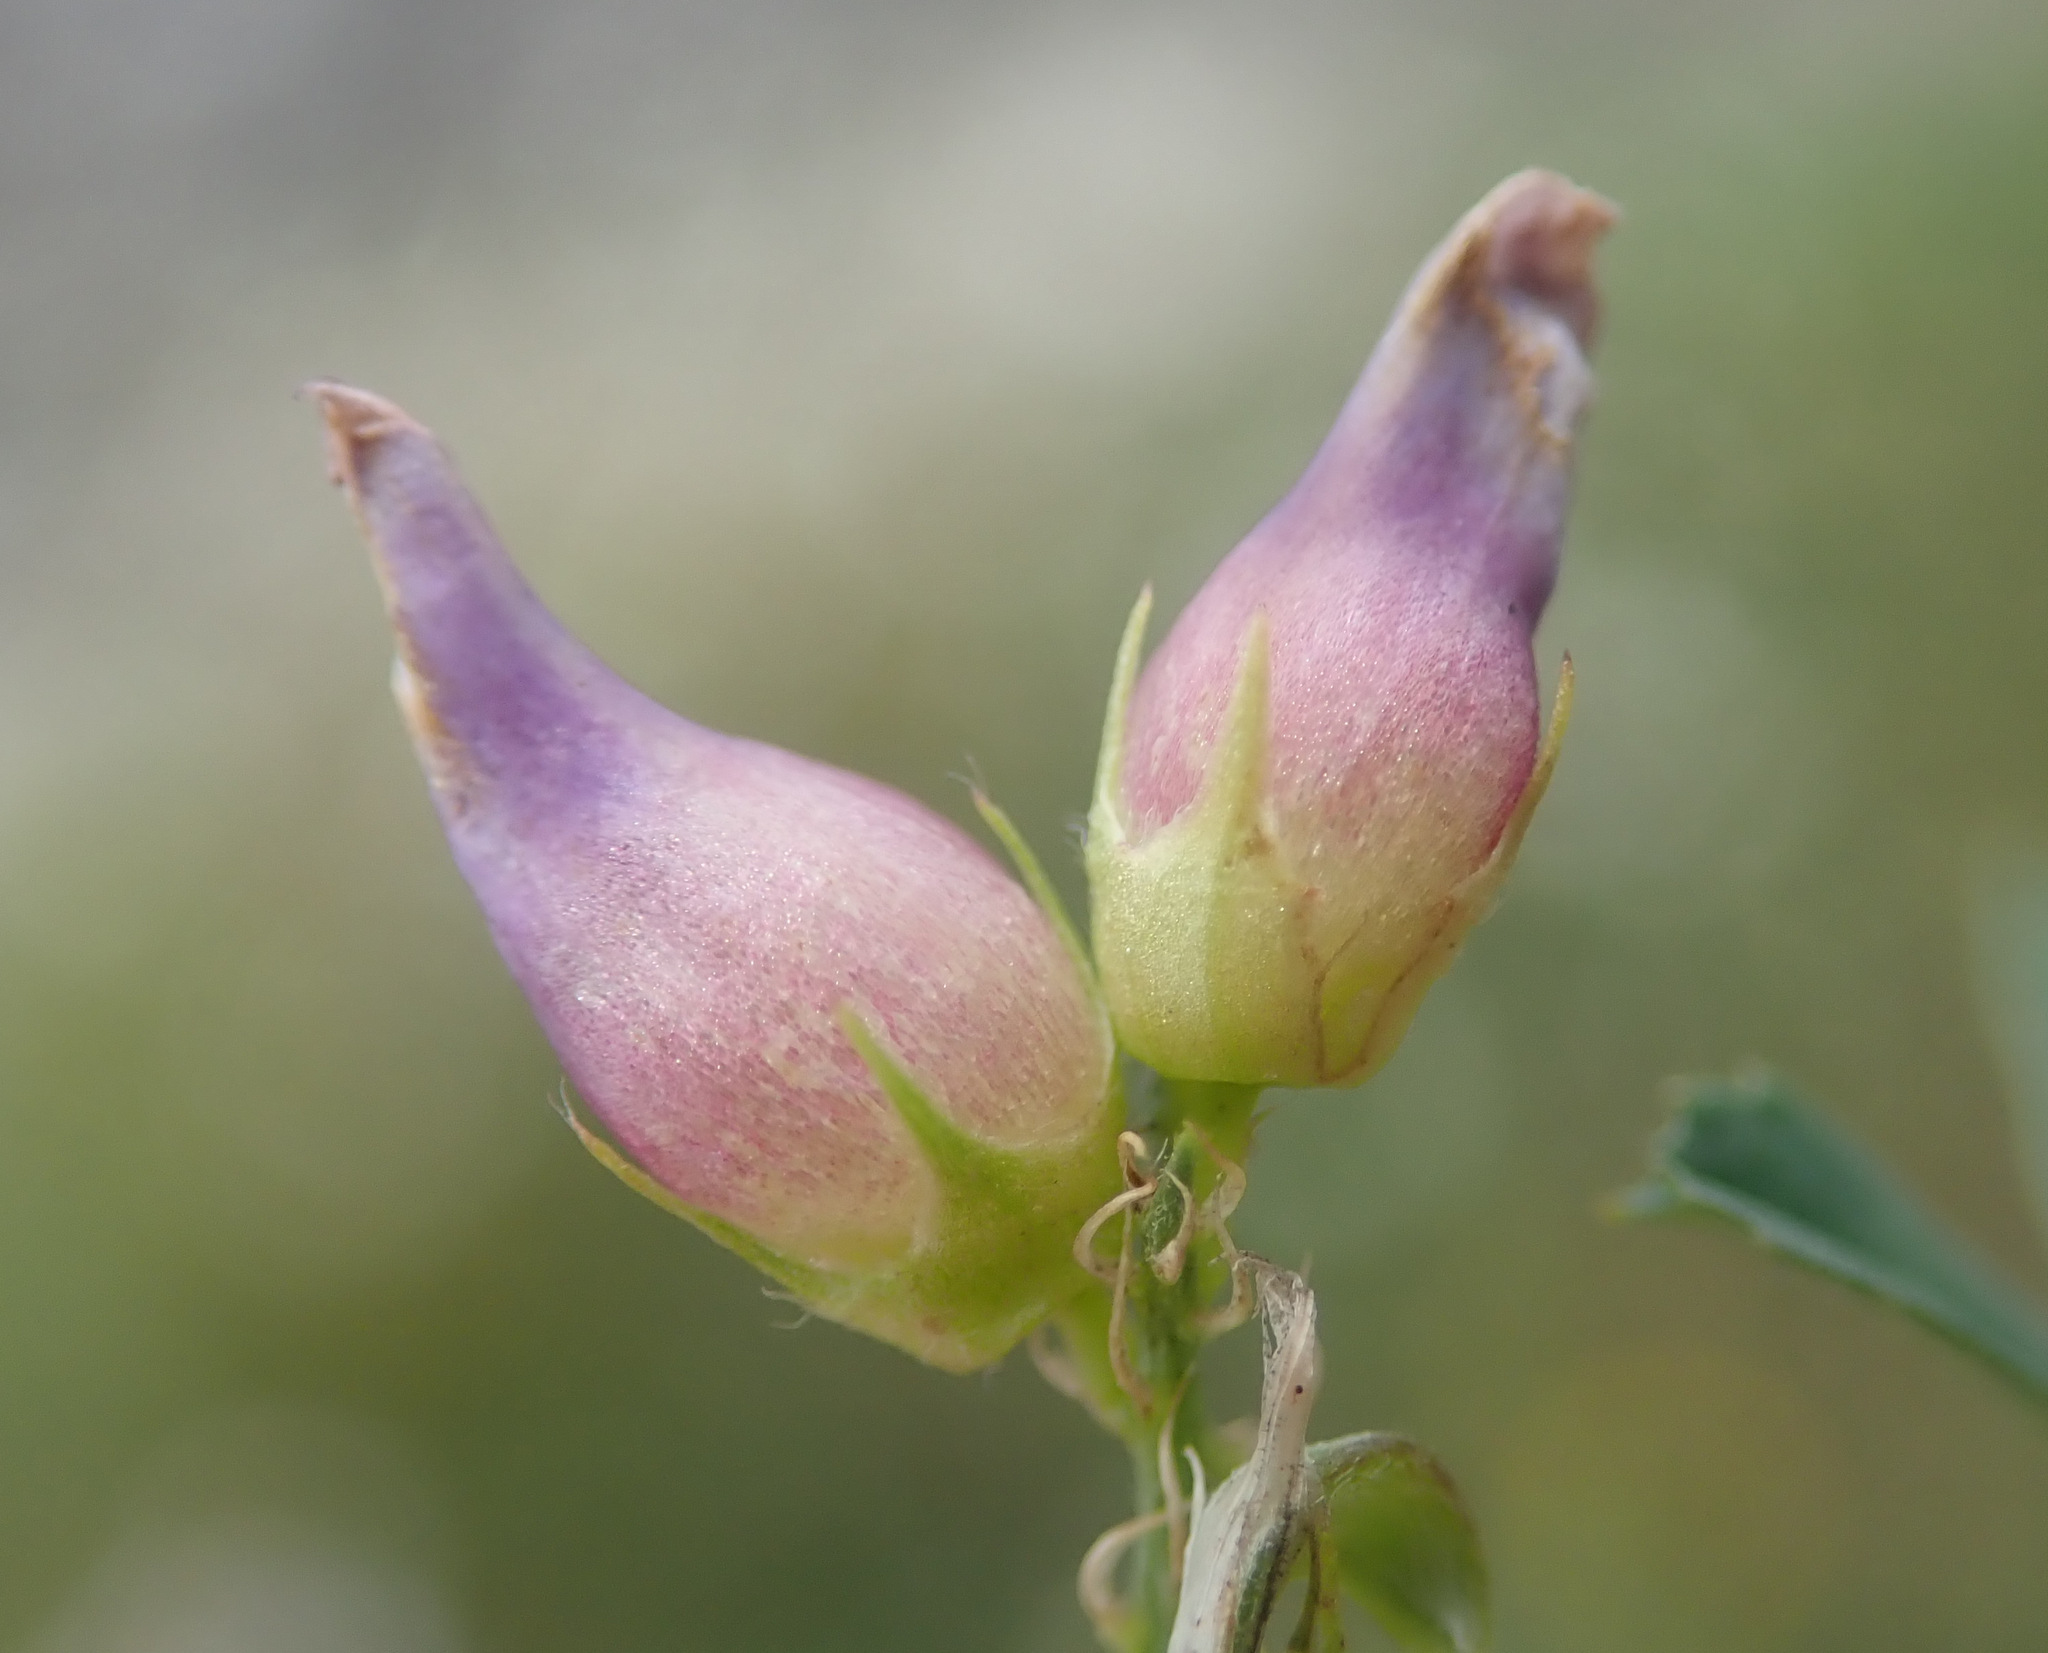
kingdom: Animalia
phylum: Arthropoda
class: Insecta
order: Diptera
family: Cecidomyiidae
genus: Contarinia
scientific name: Contarinia craccae
